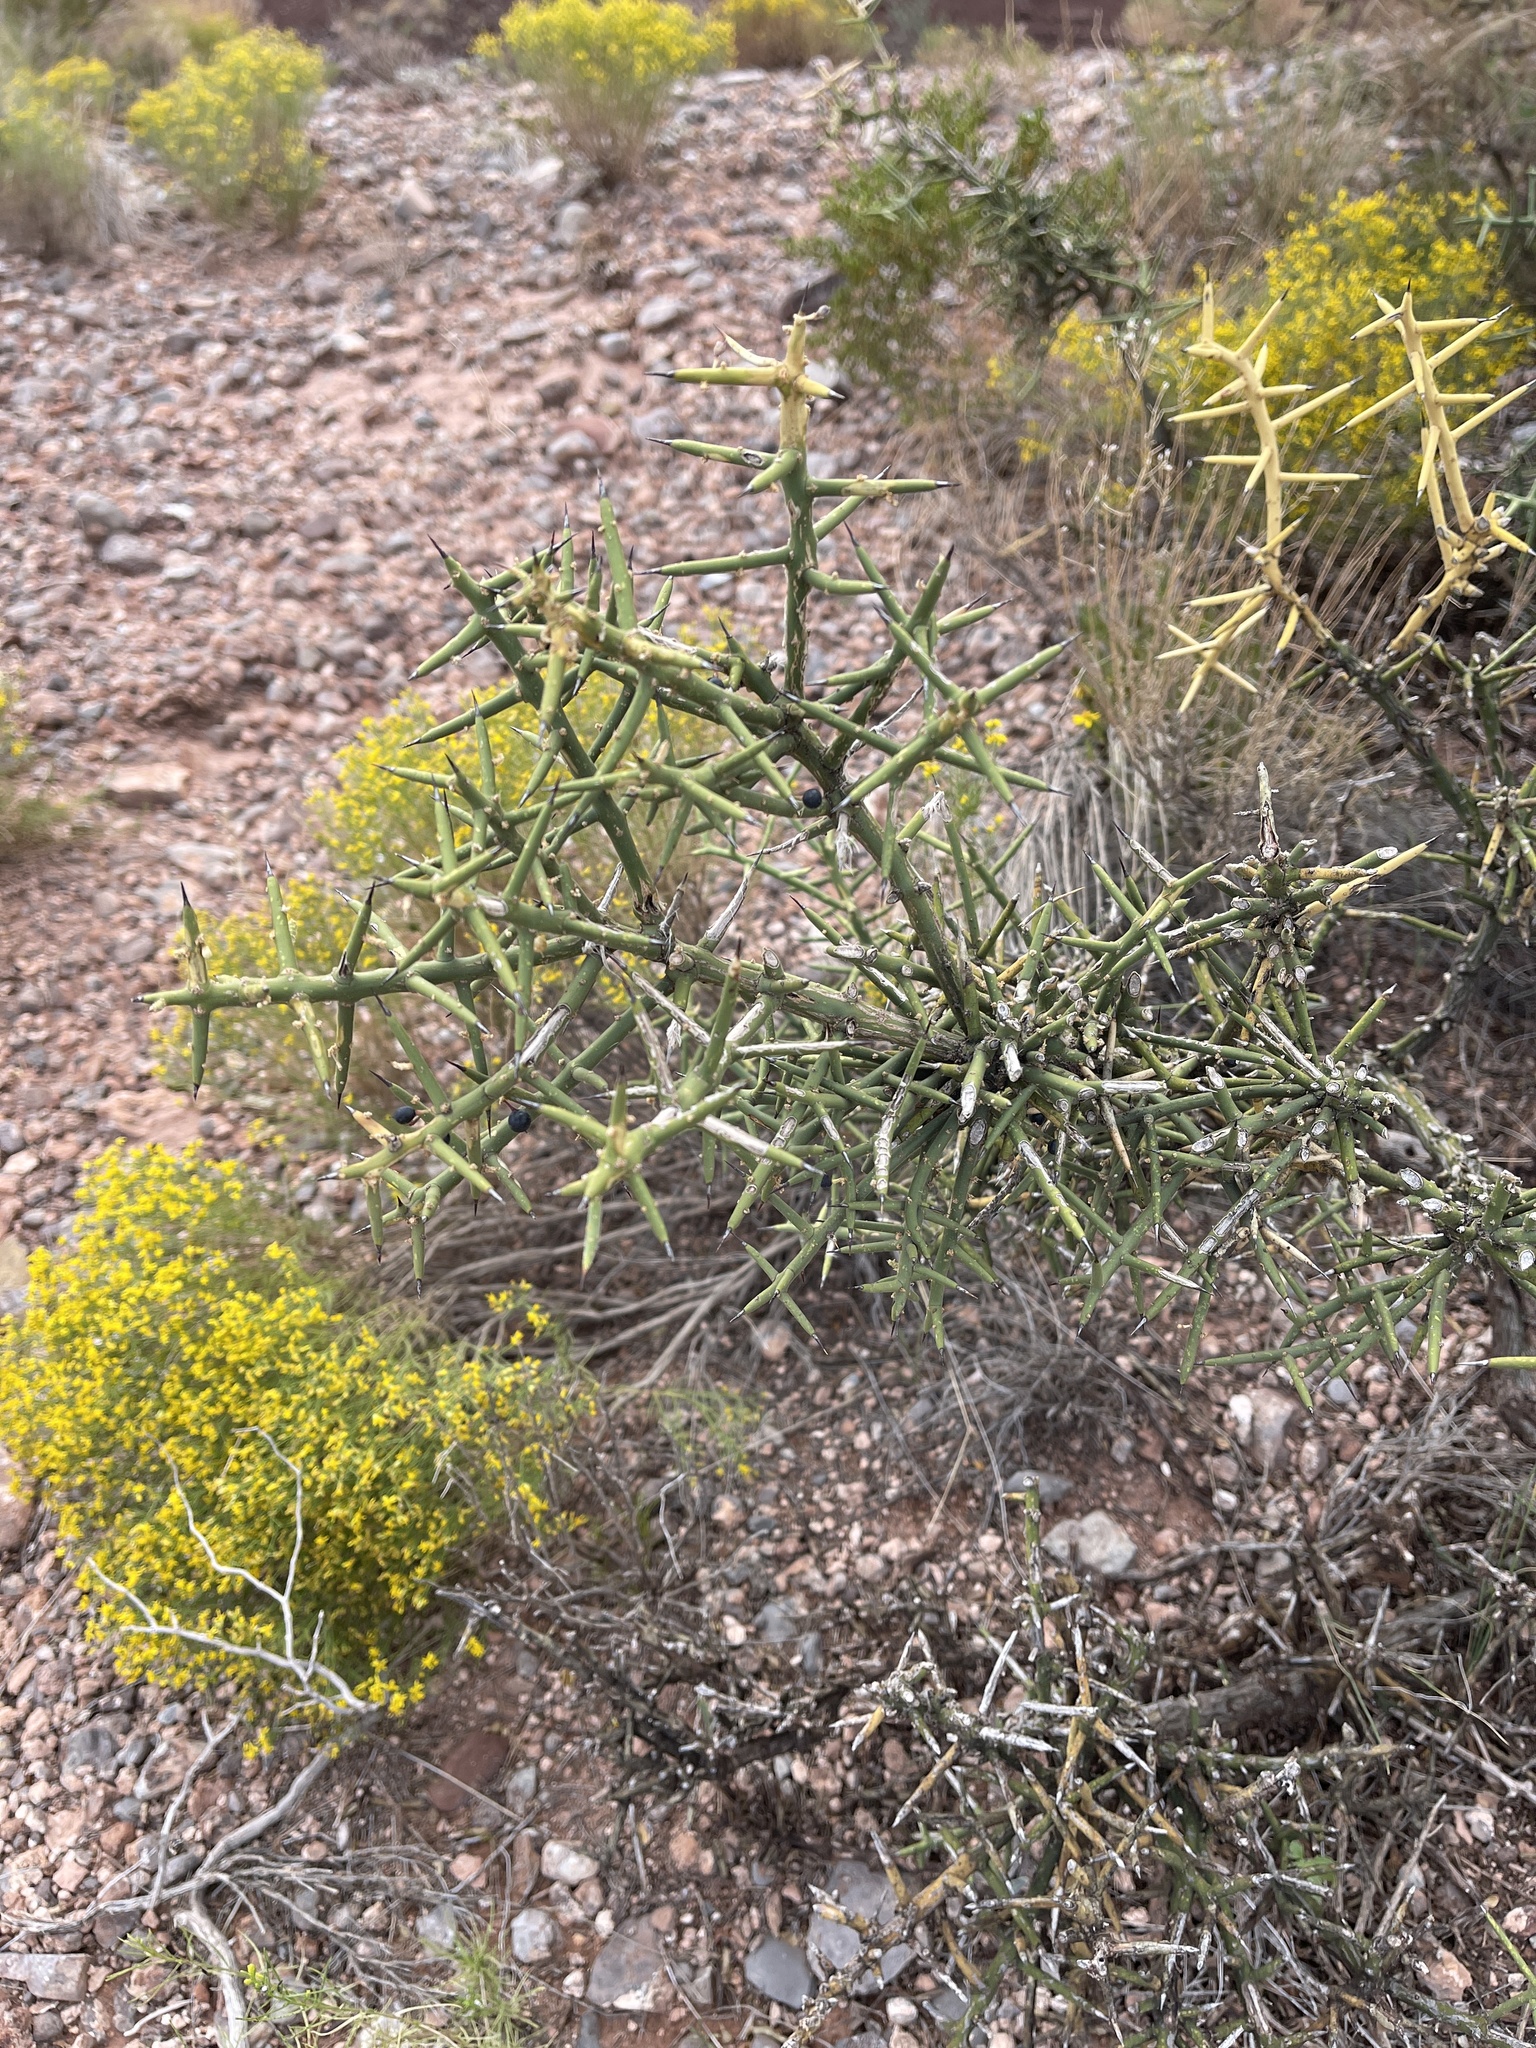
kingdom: Plantae
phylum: Tracheophyta
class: Magnoliopsida
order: Brassicales
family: Koeberliniaceae
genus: Koeberlinia
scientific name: Koeberlinia spinosa
